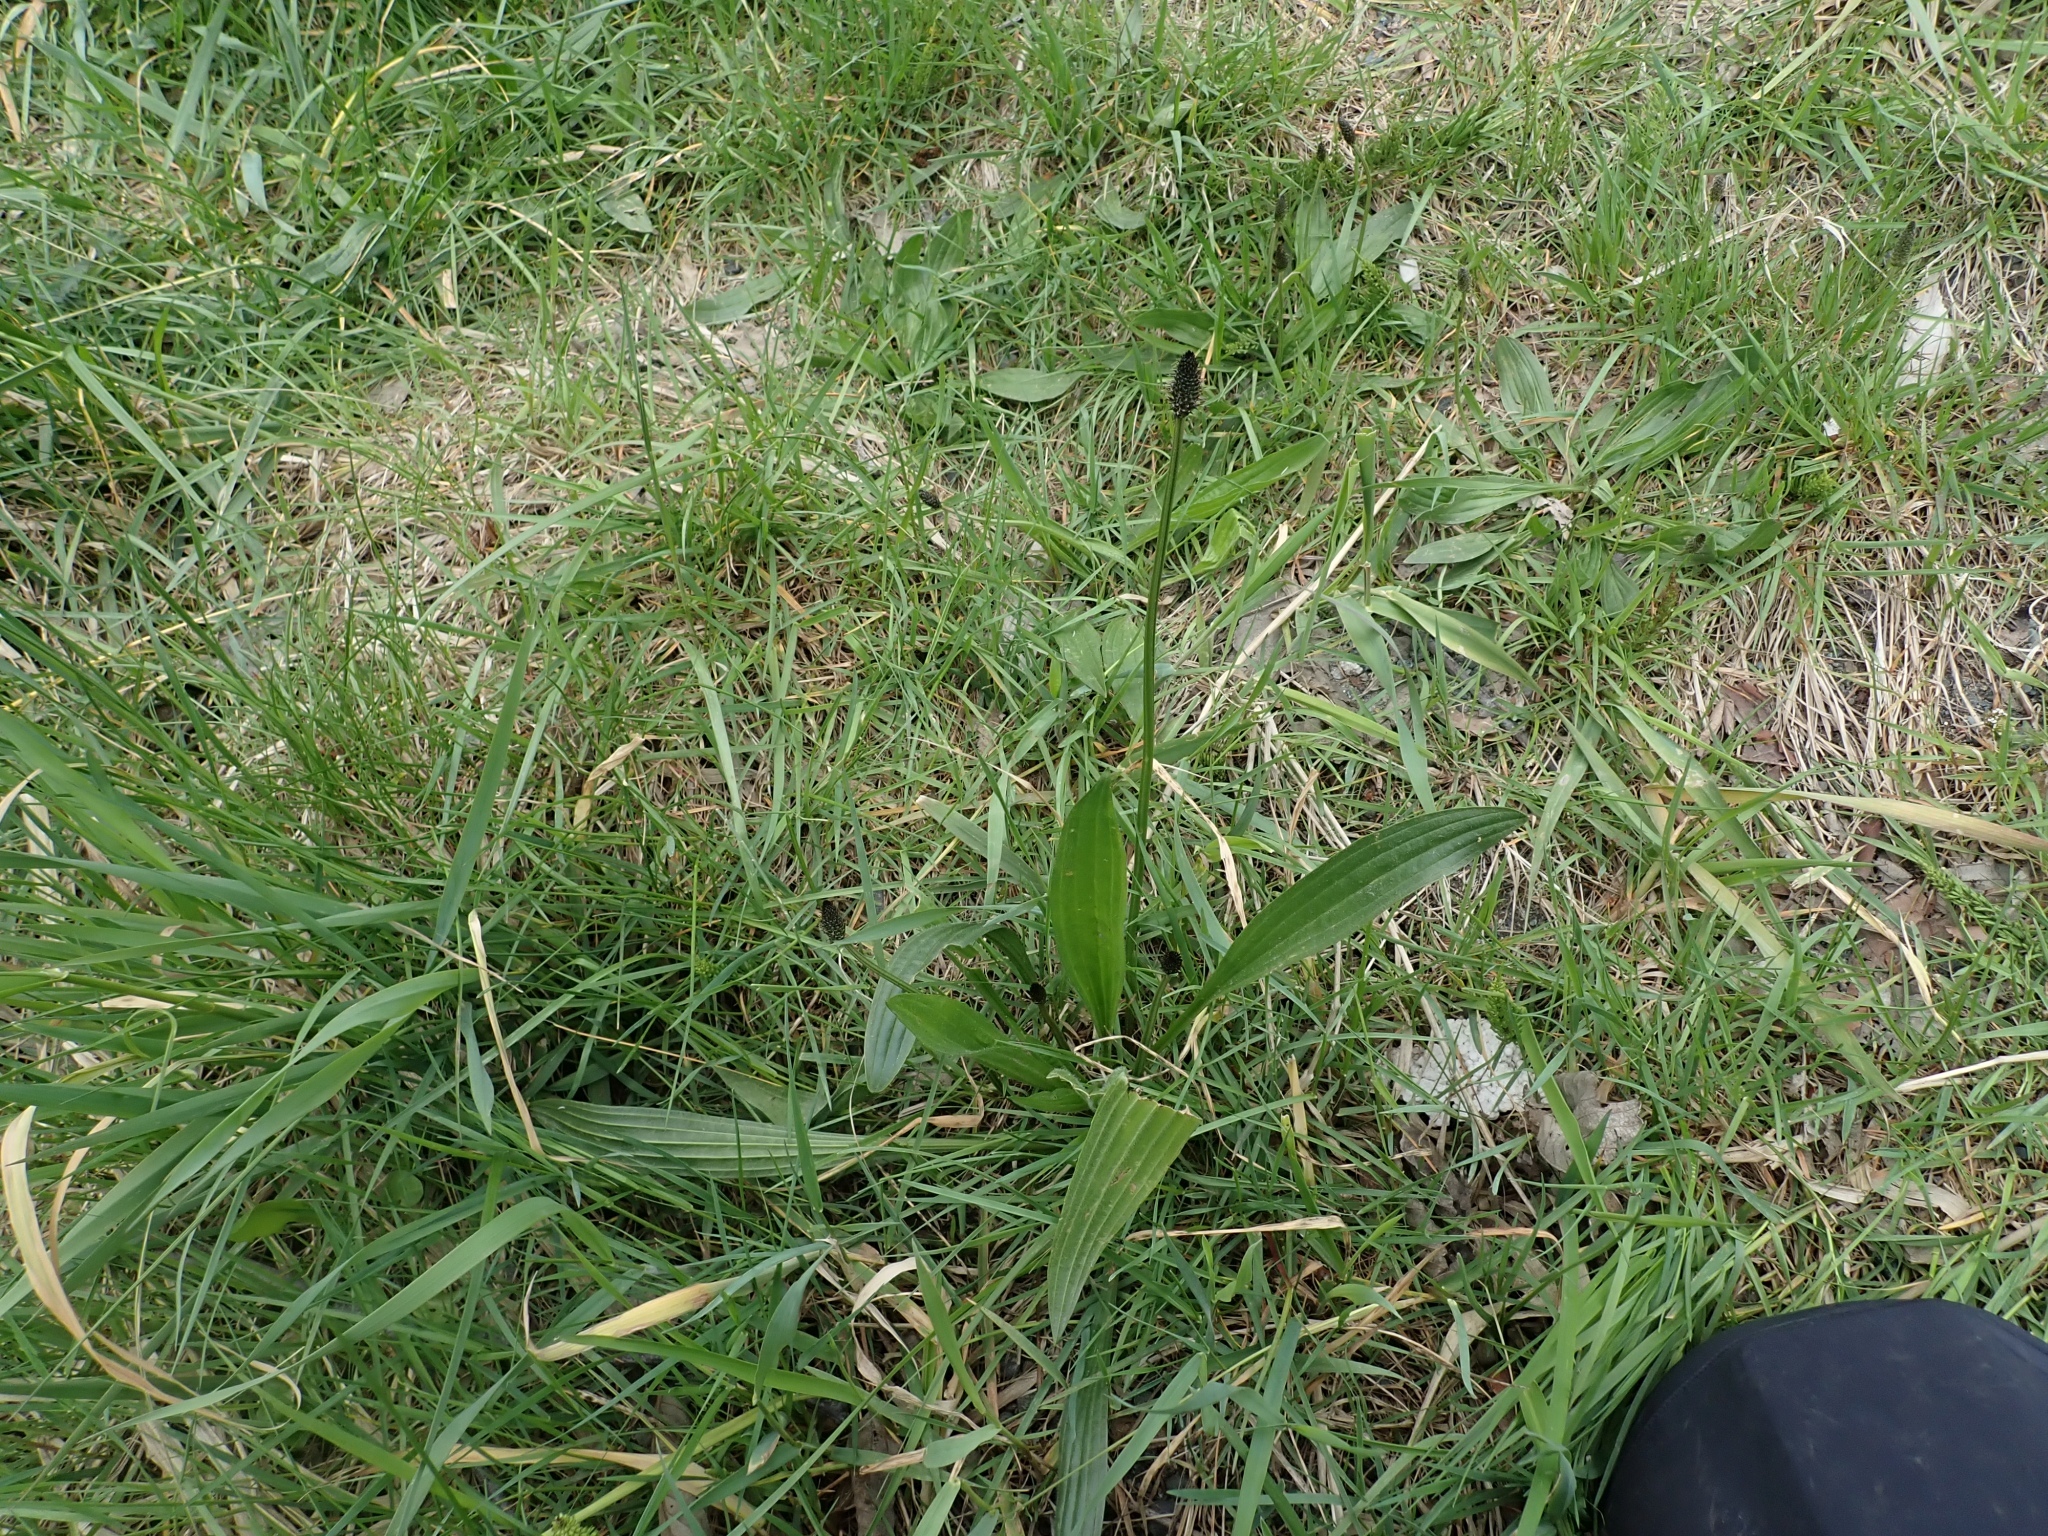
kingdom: Plantae
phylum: Tracheophyta
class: Magnoliopsida
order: Lamiales
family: Plantaginaceae
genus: Plantago
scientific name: Plantago lanceolata
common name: Ribwort plantain
